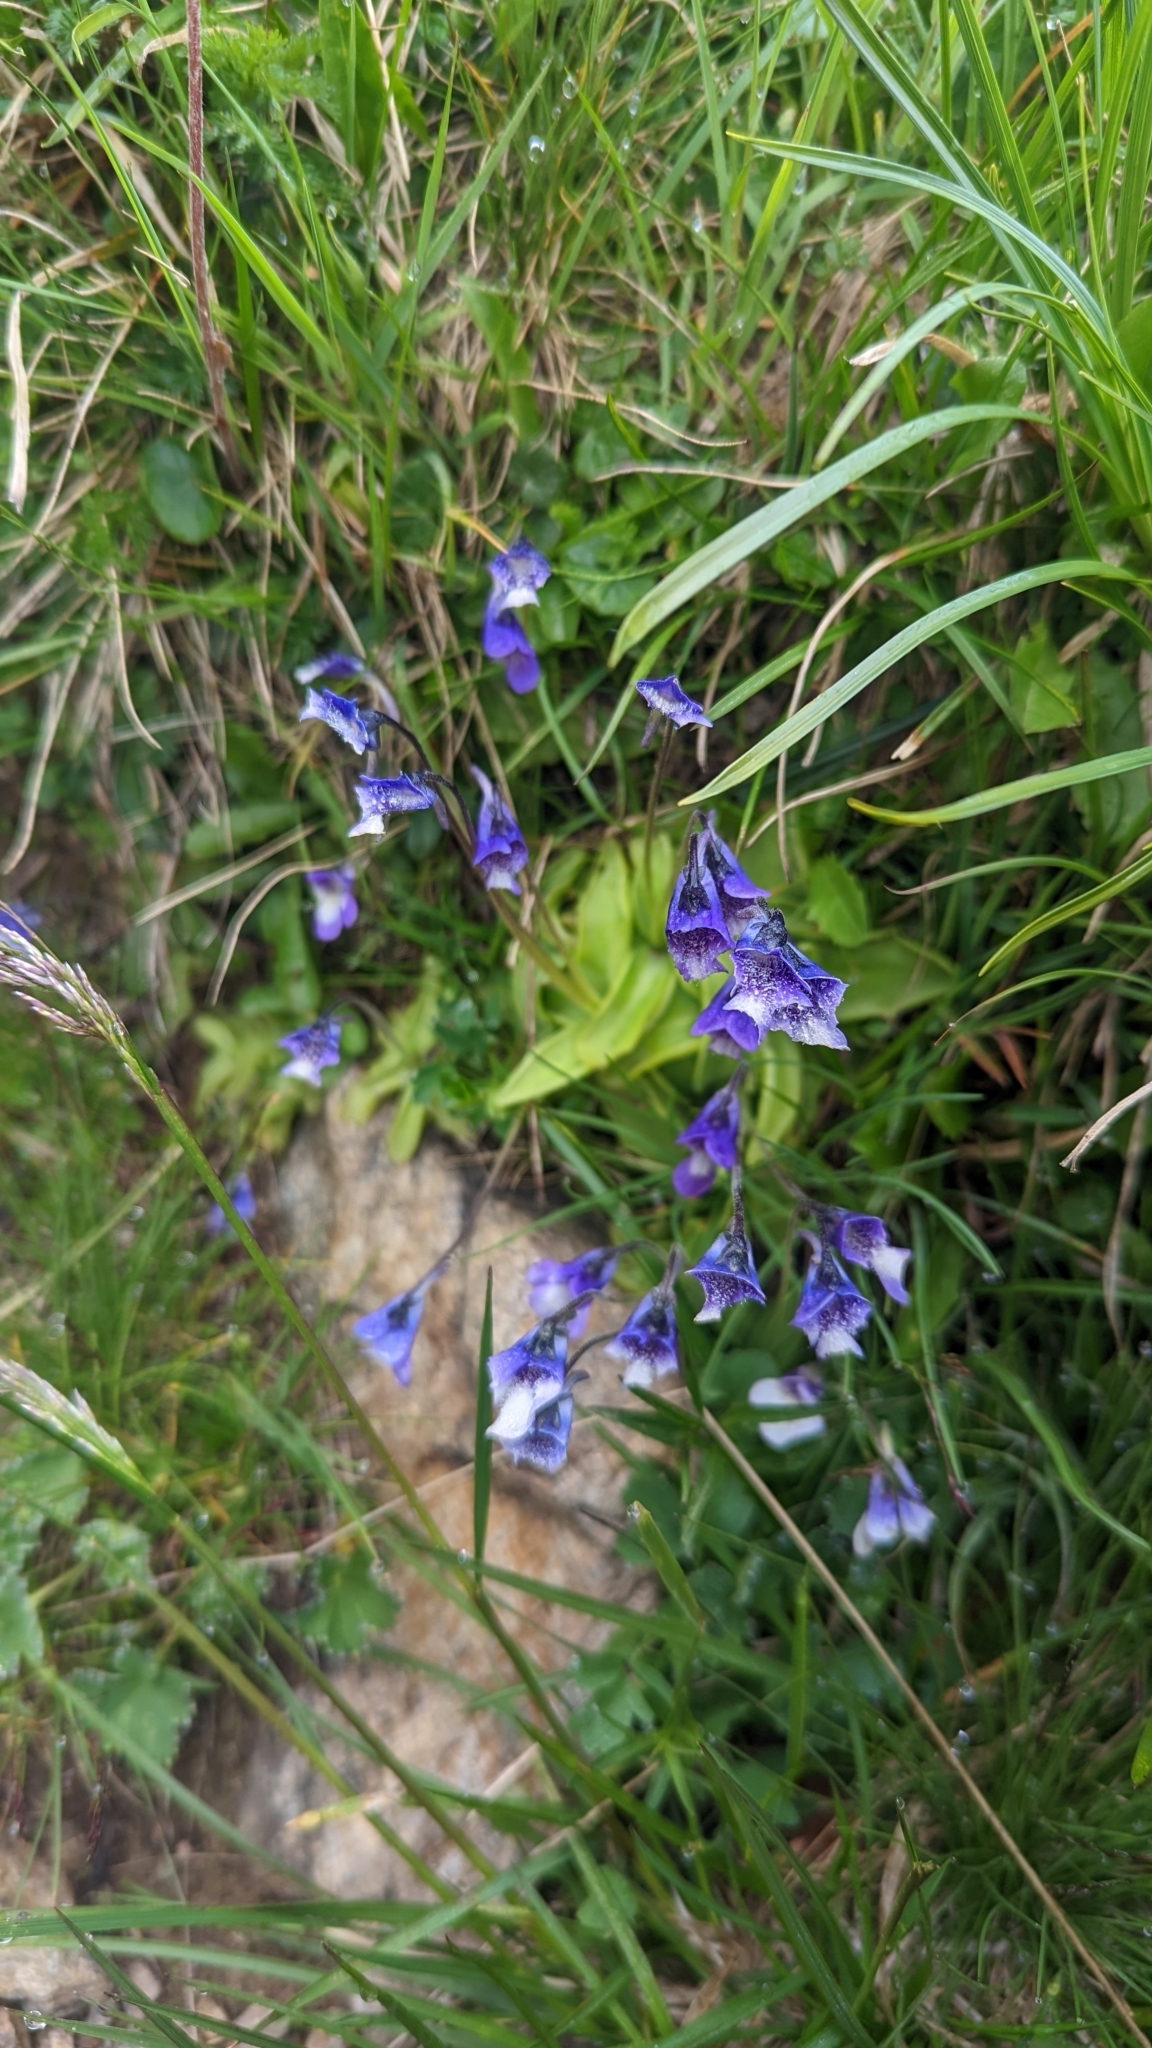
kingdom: Plantae
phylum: Tracheophyta
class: Magnoliopsida
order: Lamiales
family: Lentibulariaceae
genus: Pinguicula
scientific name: Pinguicula leptoceras
